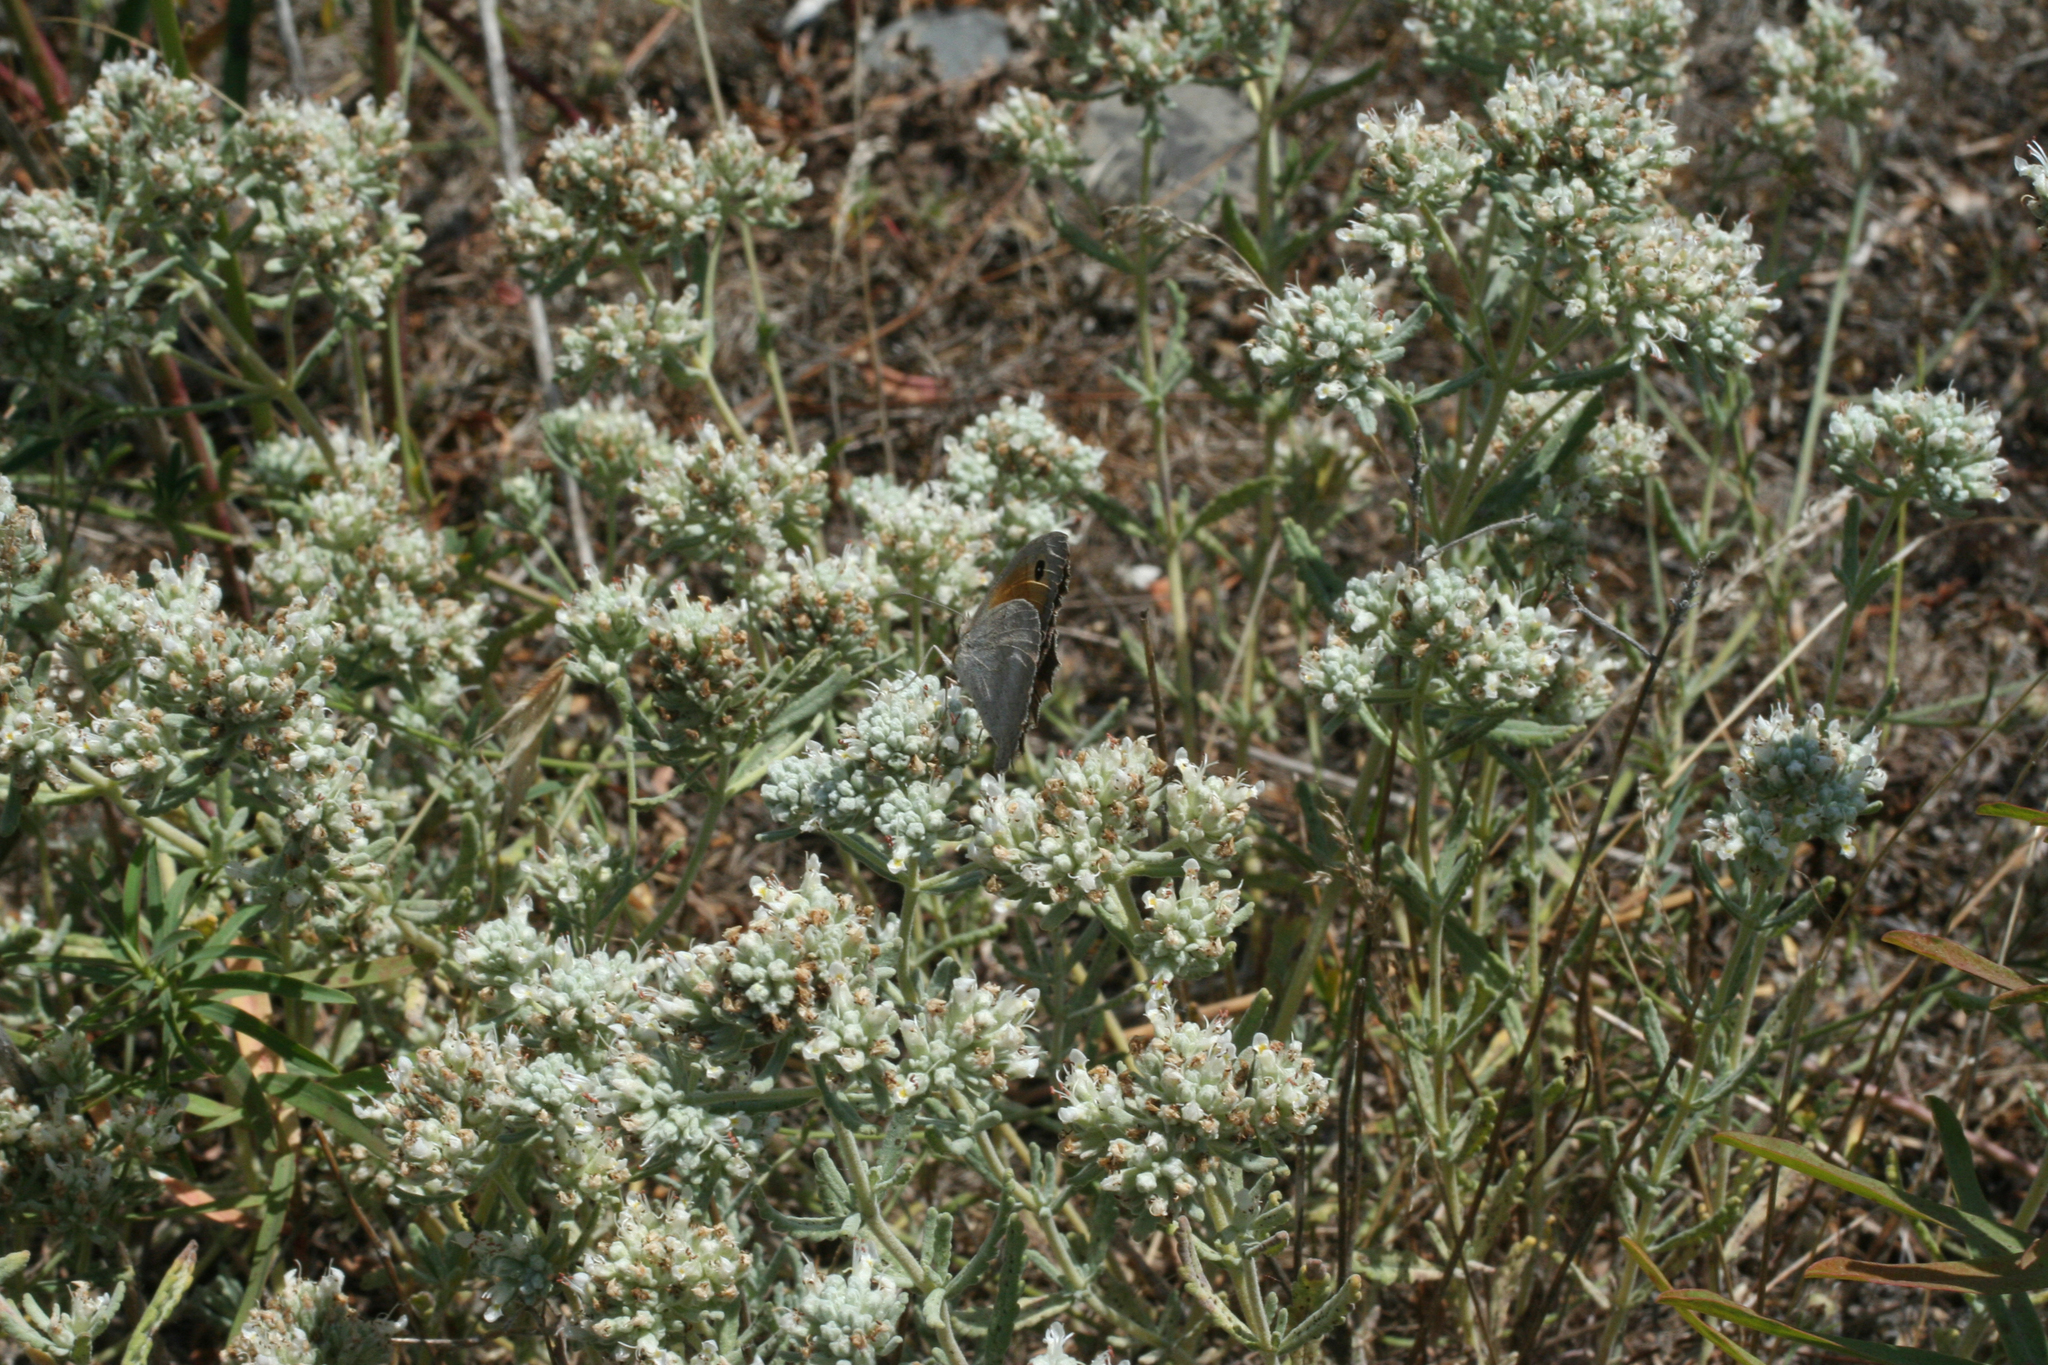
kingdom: Plantae
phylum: Tracheophyta
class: Magnoliopsida
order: Lamiales
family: Lamiaceae
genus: Teucrium
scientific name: Teucrium polium
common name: Poley
